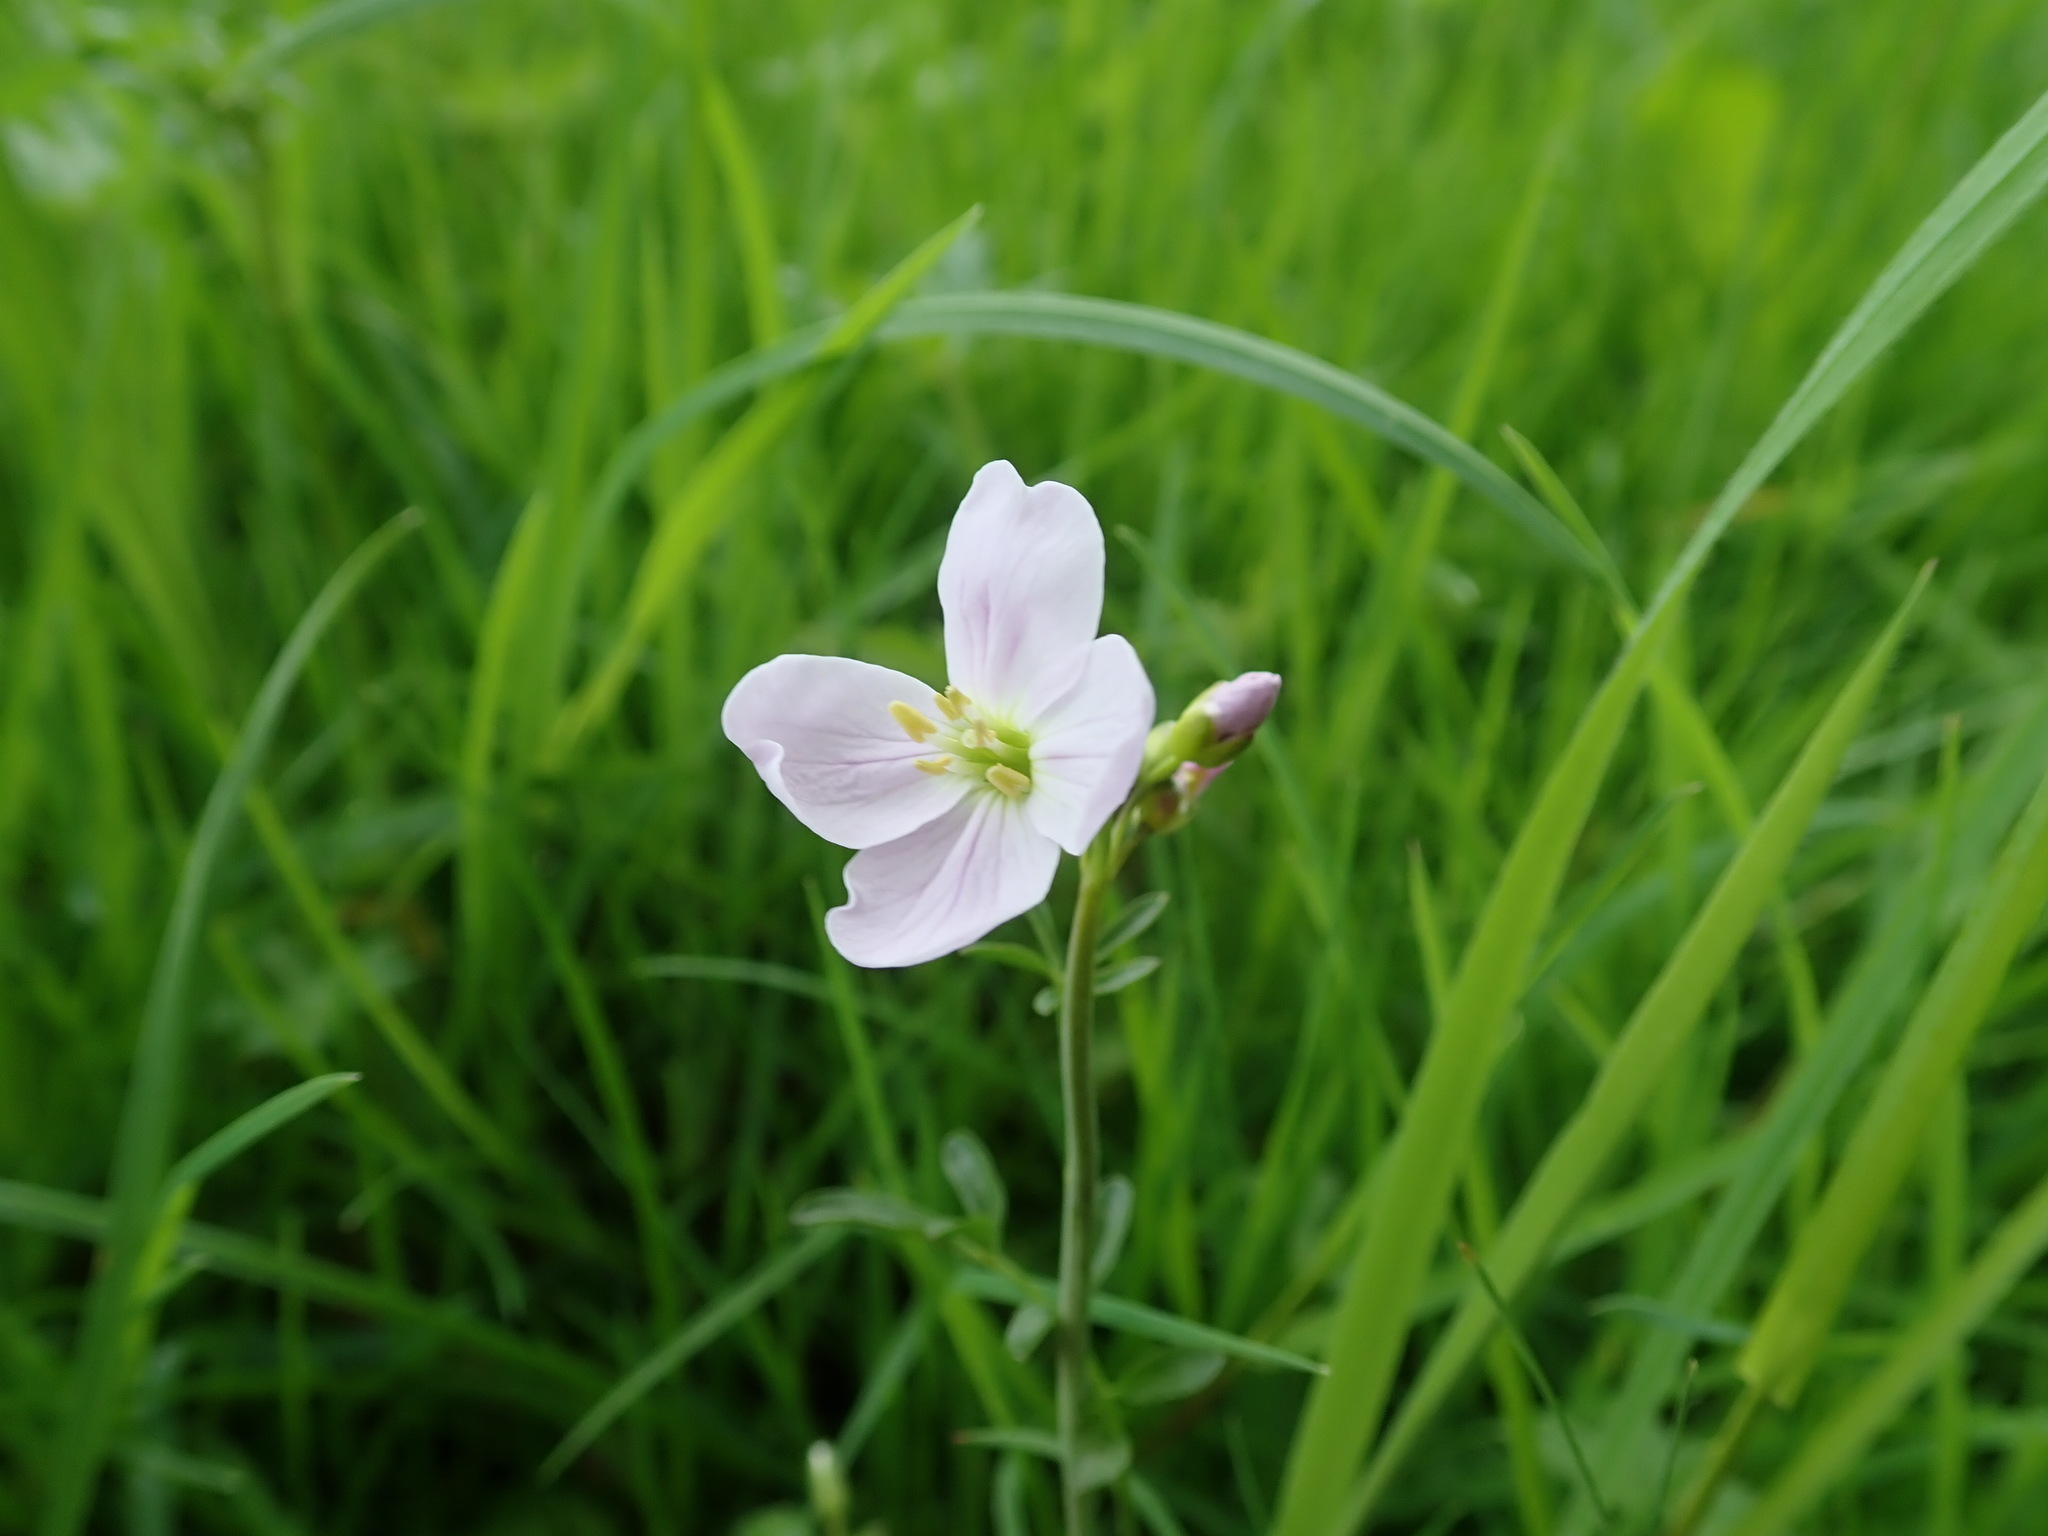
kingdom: Plantae
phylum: Tracheophyta
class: Magnoliopsida
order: Brassicales
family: Brassicaceae
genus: Cardamine
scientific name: Cardamine pratensis
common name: Cuckoo flower
